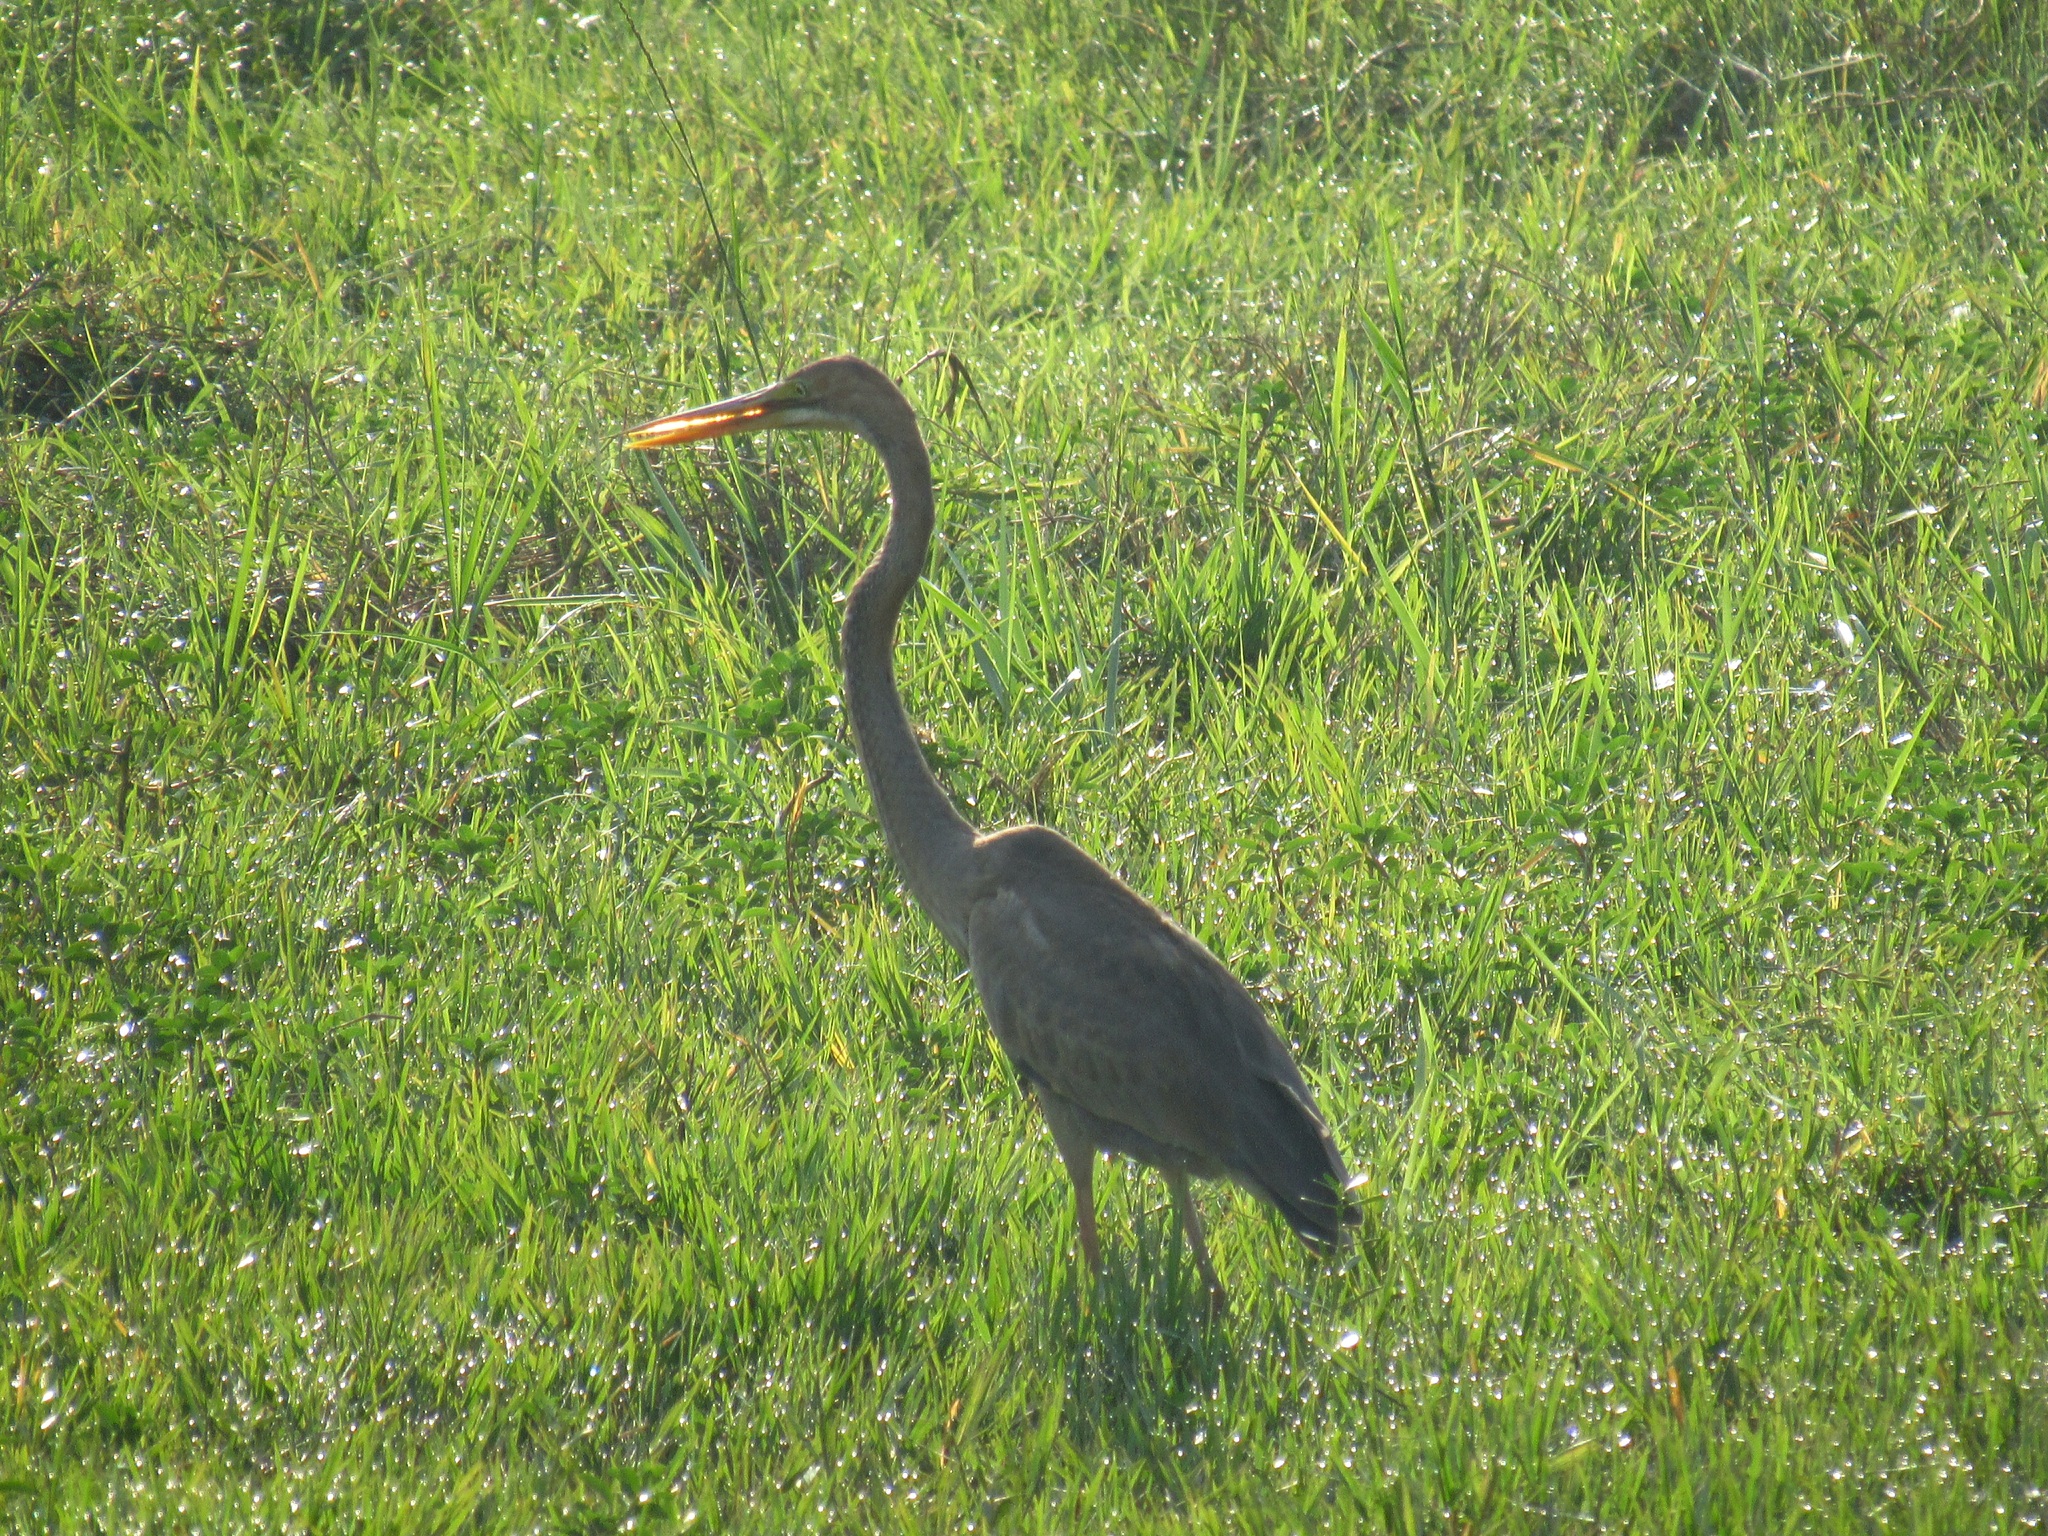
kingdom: Animalia
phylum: Chordata
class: Aves
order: Pelecaniformes
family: Ardeidae
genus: Ardea
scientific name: Ardea purpurea
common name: Purple heron
